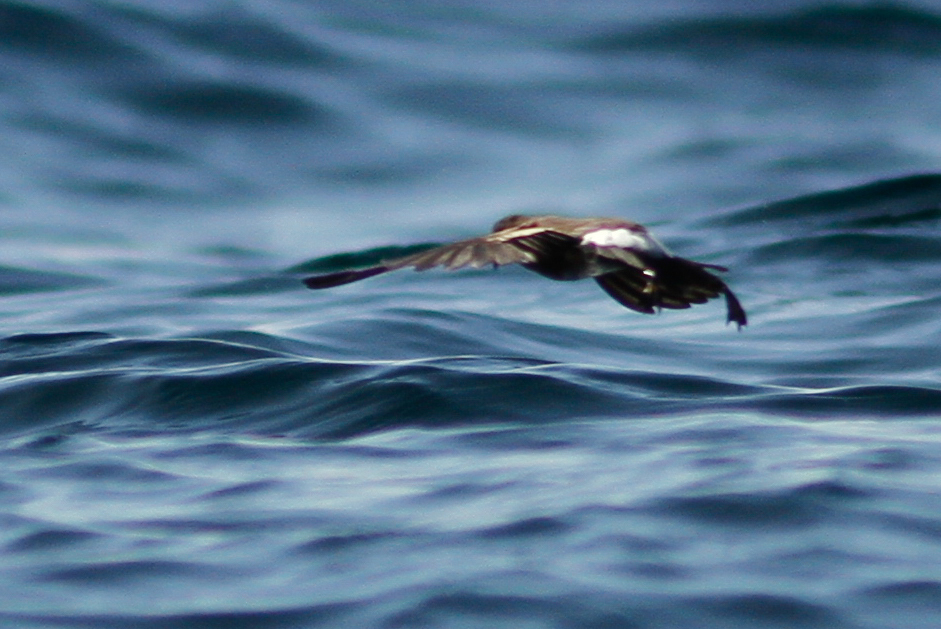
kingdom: Animalia
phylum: Chordata
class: Aves
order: Procellariiformes
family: Hydrobatidae
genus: Oceanites
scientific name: Oceanites gracilis
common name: Elliot's storm-petrel
